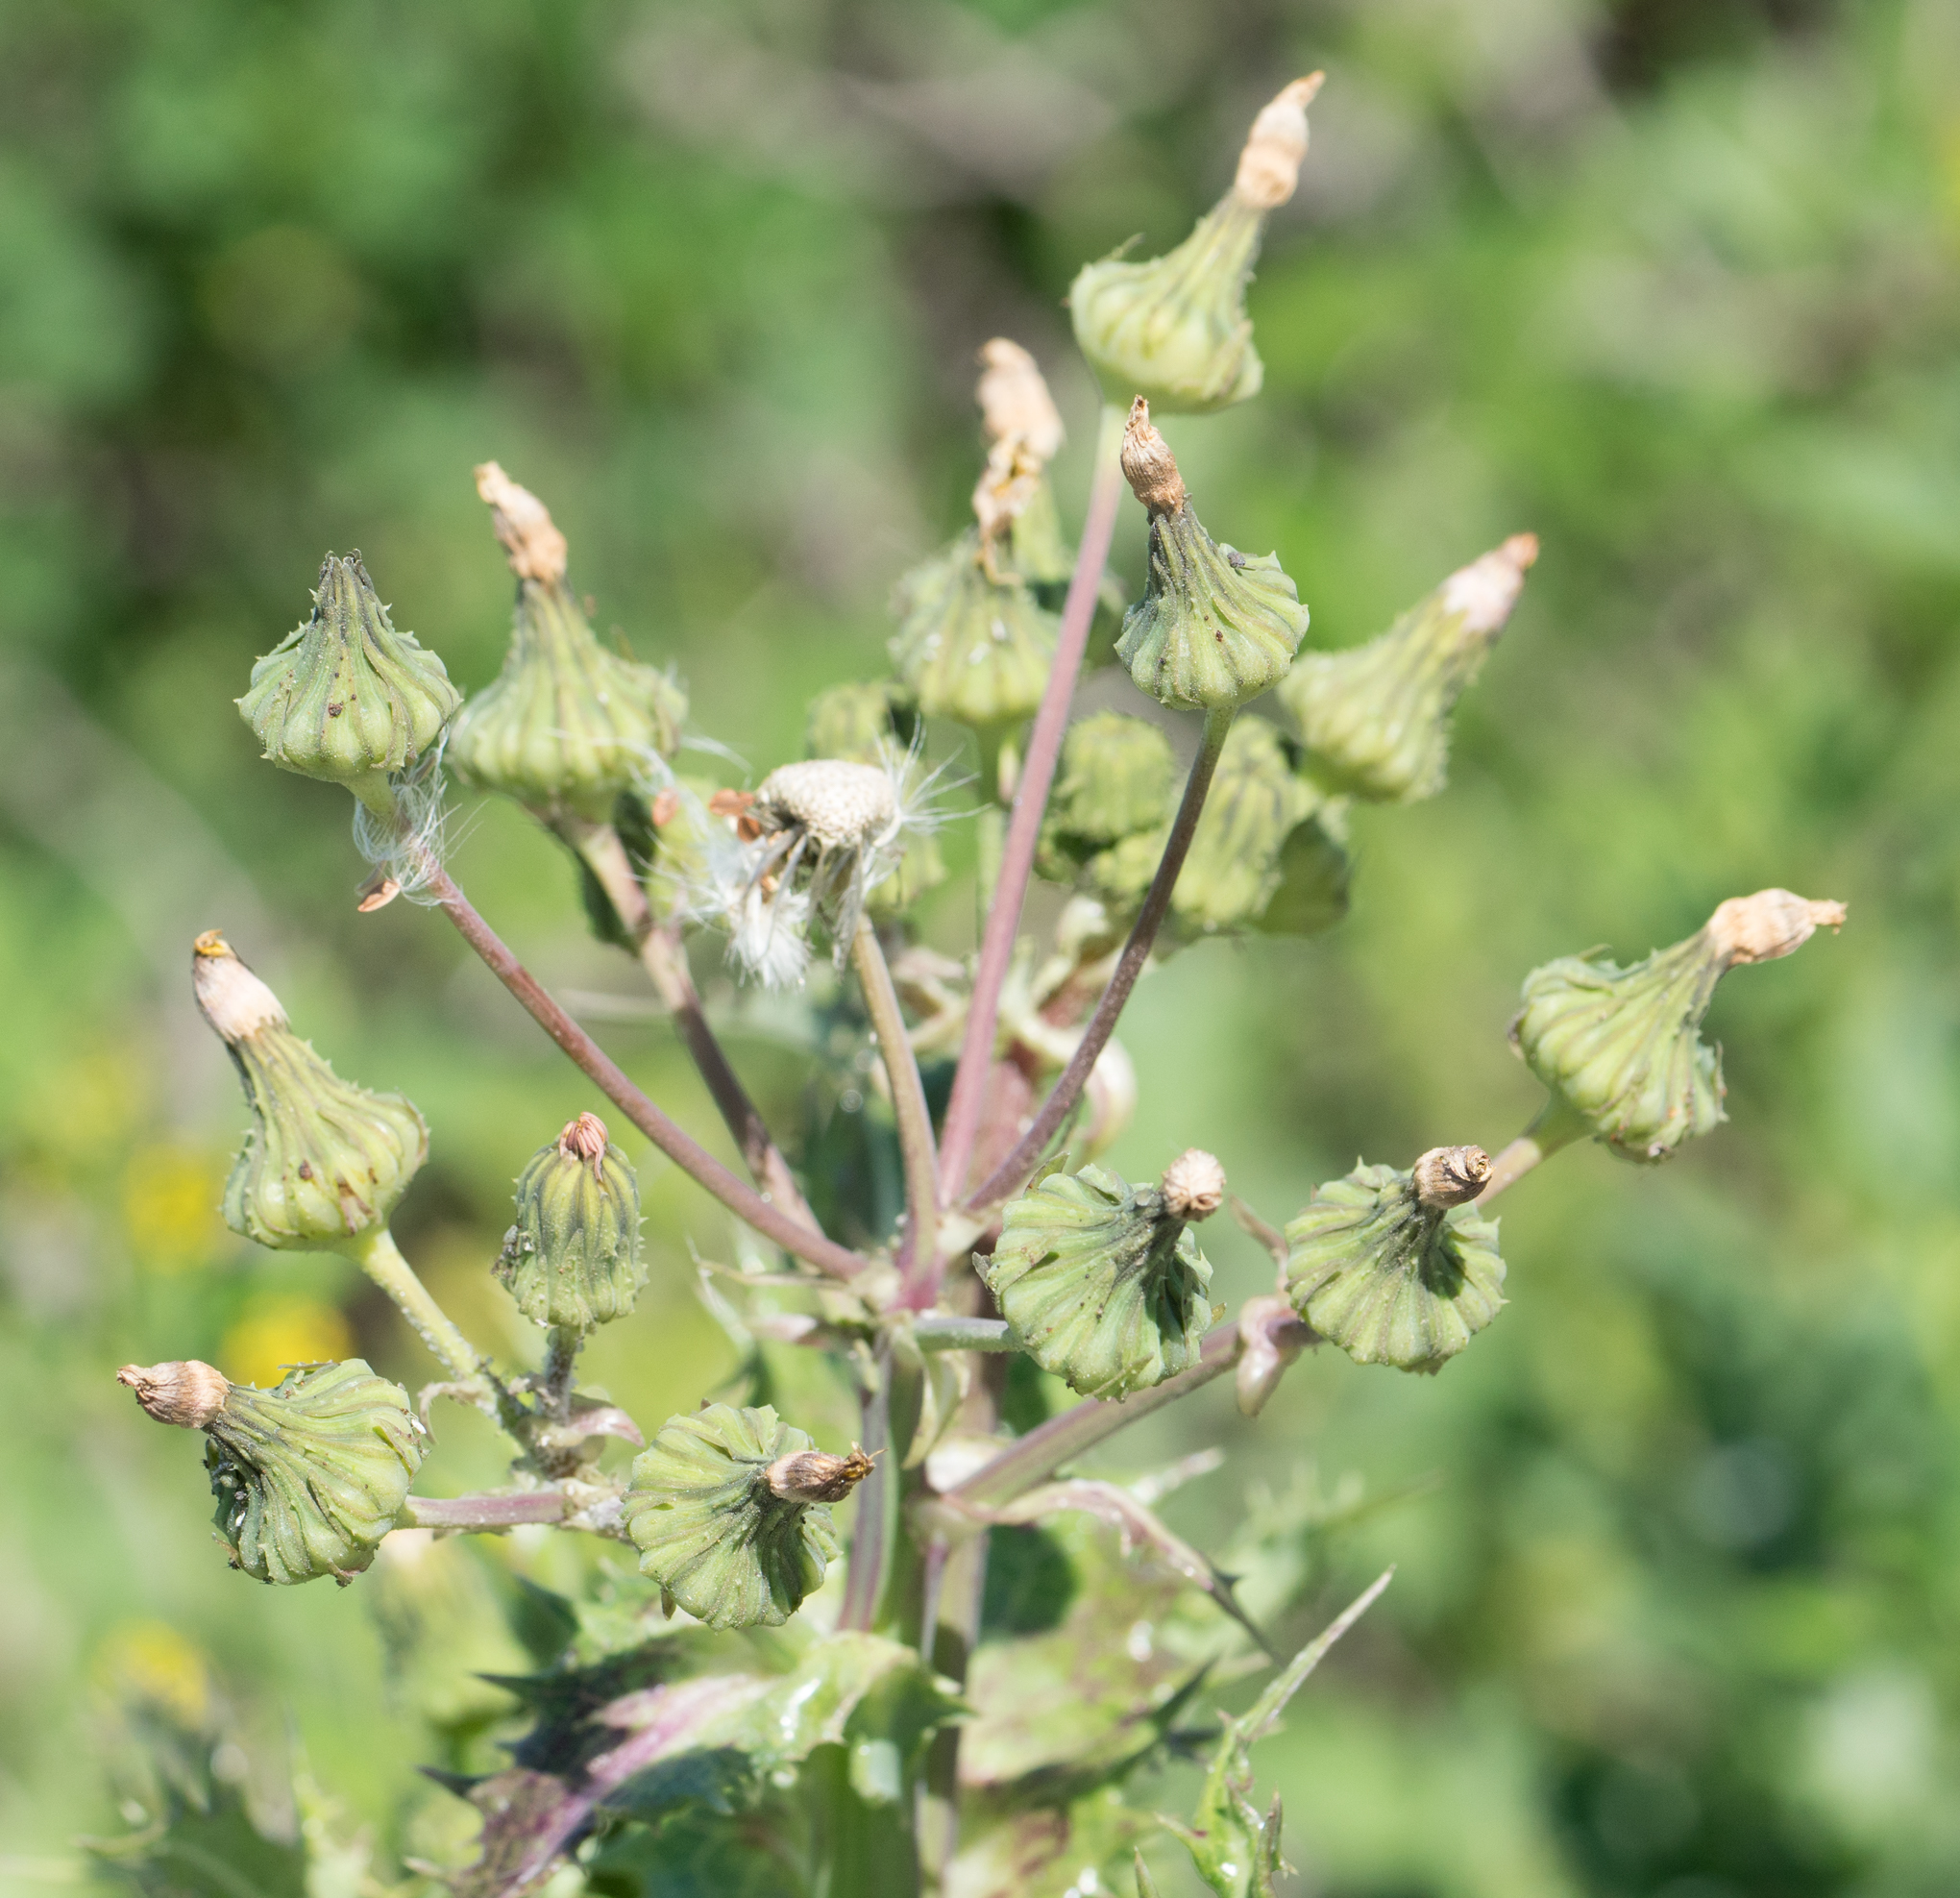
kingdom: Plantae
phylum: Tracheophyta
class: Magnoliopsida
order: Asterales
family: Asteraceae
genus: Sonchus
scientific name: Sonchus asper
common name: Prickly sow-thistle
